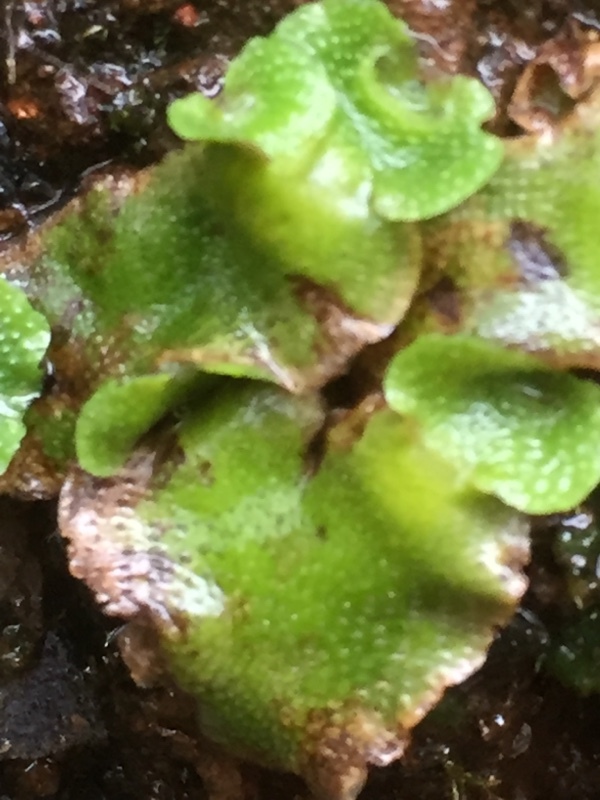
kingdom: Plantae
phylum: Marchantiophyta
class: Marchantiopsida
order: Lunulariales
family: Lunulariaceae
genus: Lunularia
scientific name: Lunularia cruciata
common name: Crescent-cup liverwort
